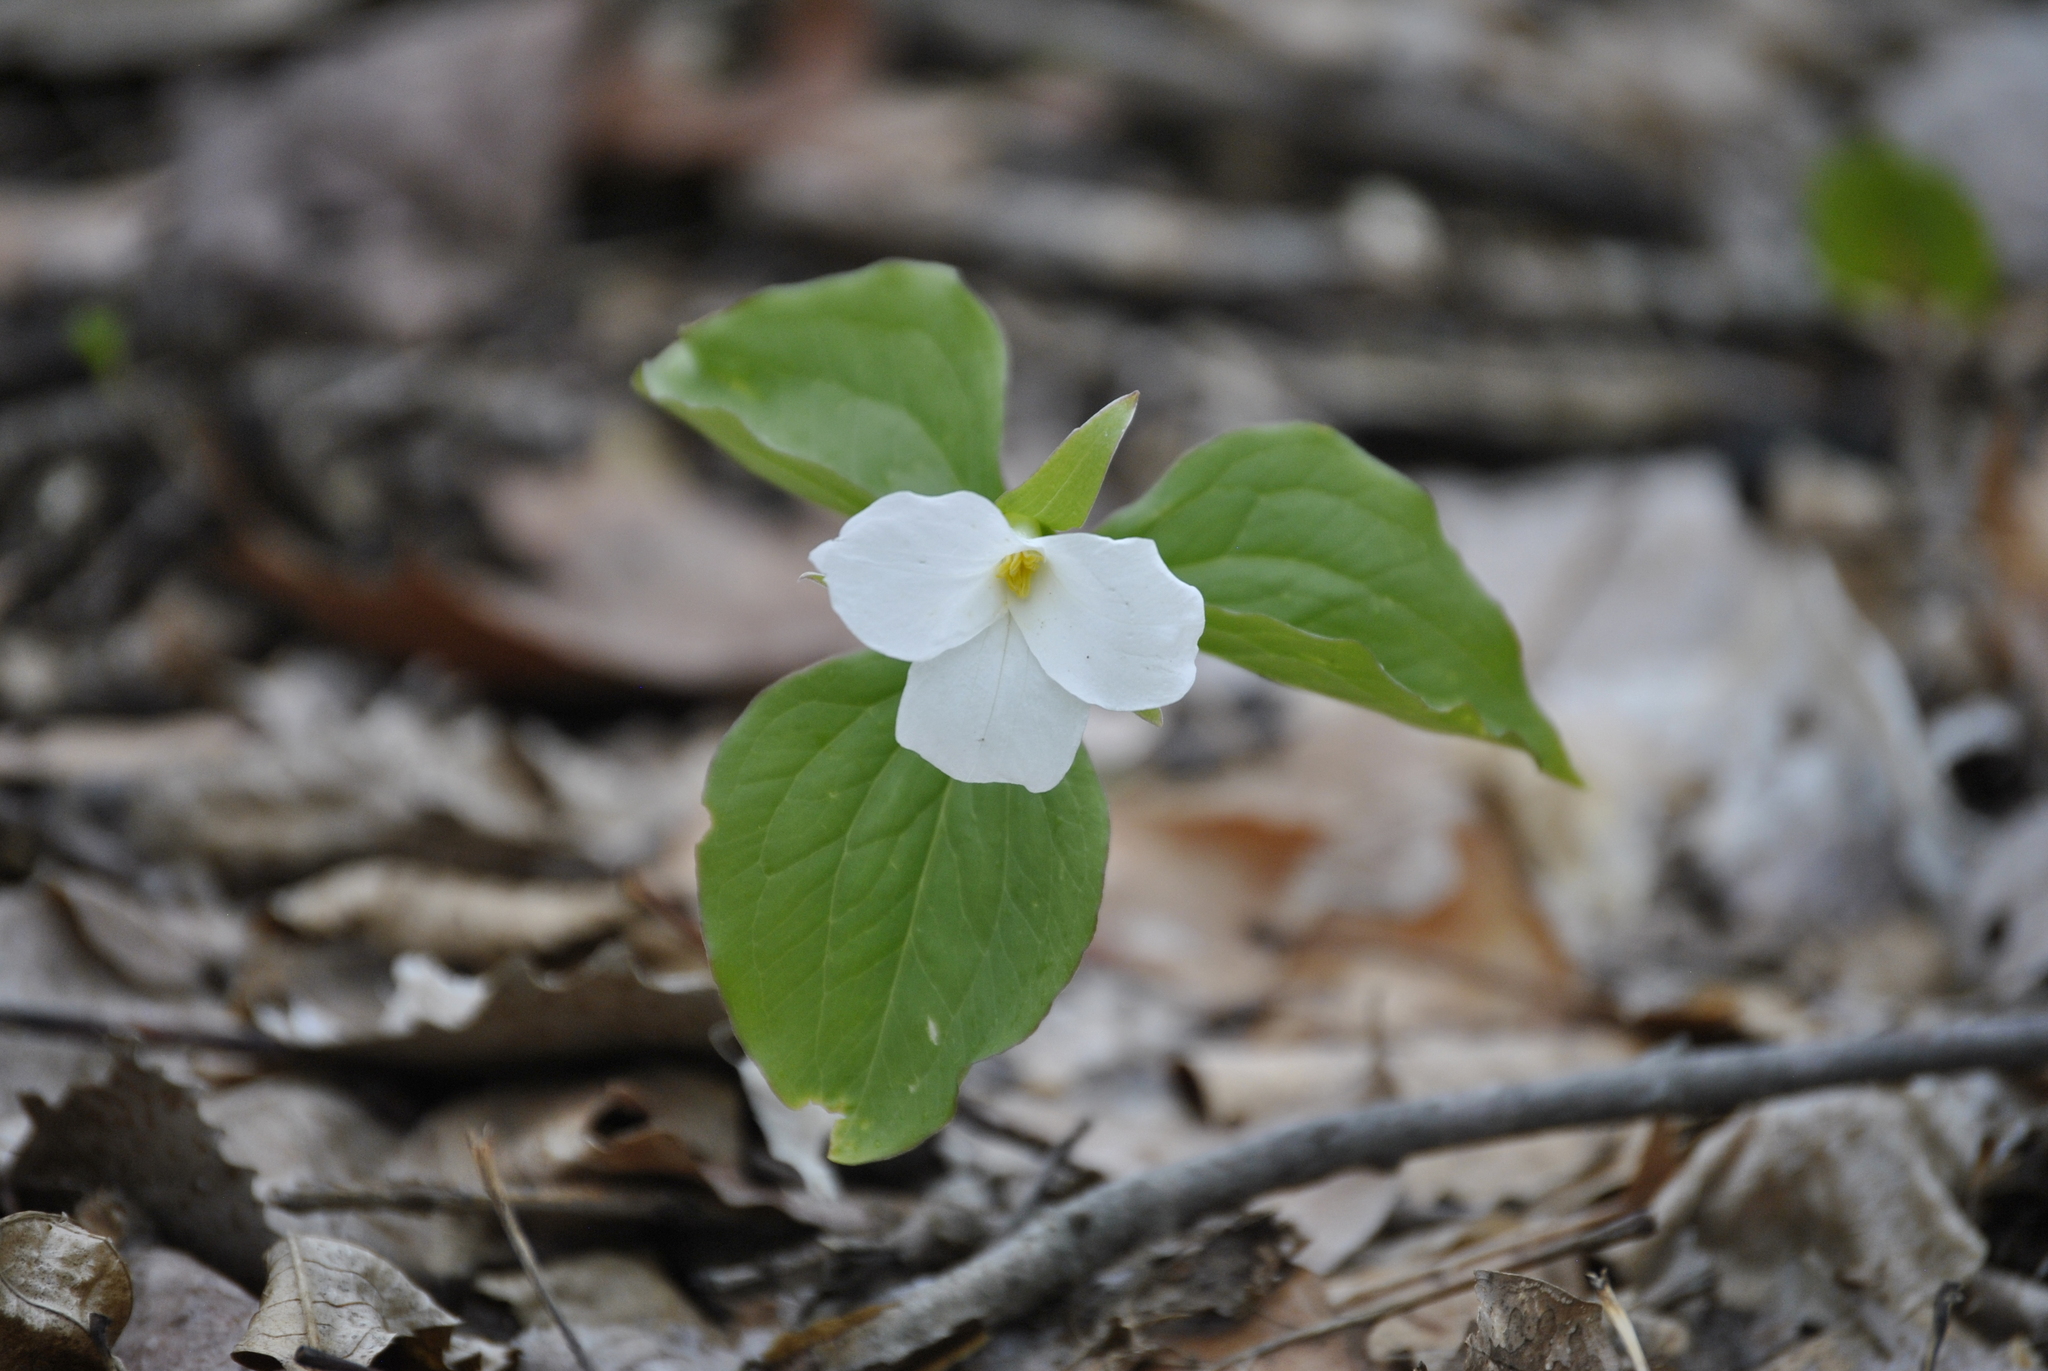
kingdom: Plantae
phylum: Tracheophyta
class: Liliopsida
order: Liliales
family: Melanthiaceae
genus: Trillium
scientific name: Trillium grandiflorum
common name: Great white trillium
